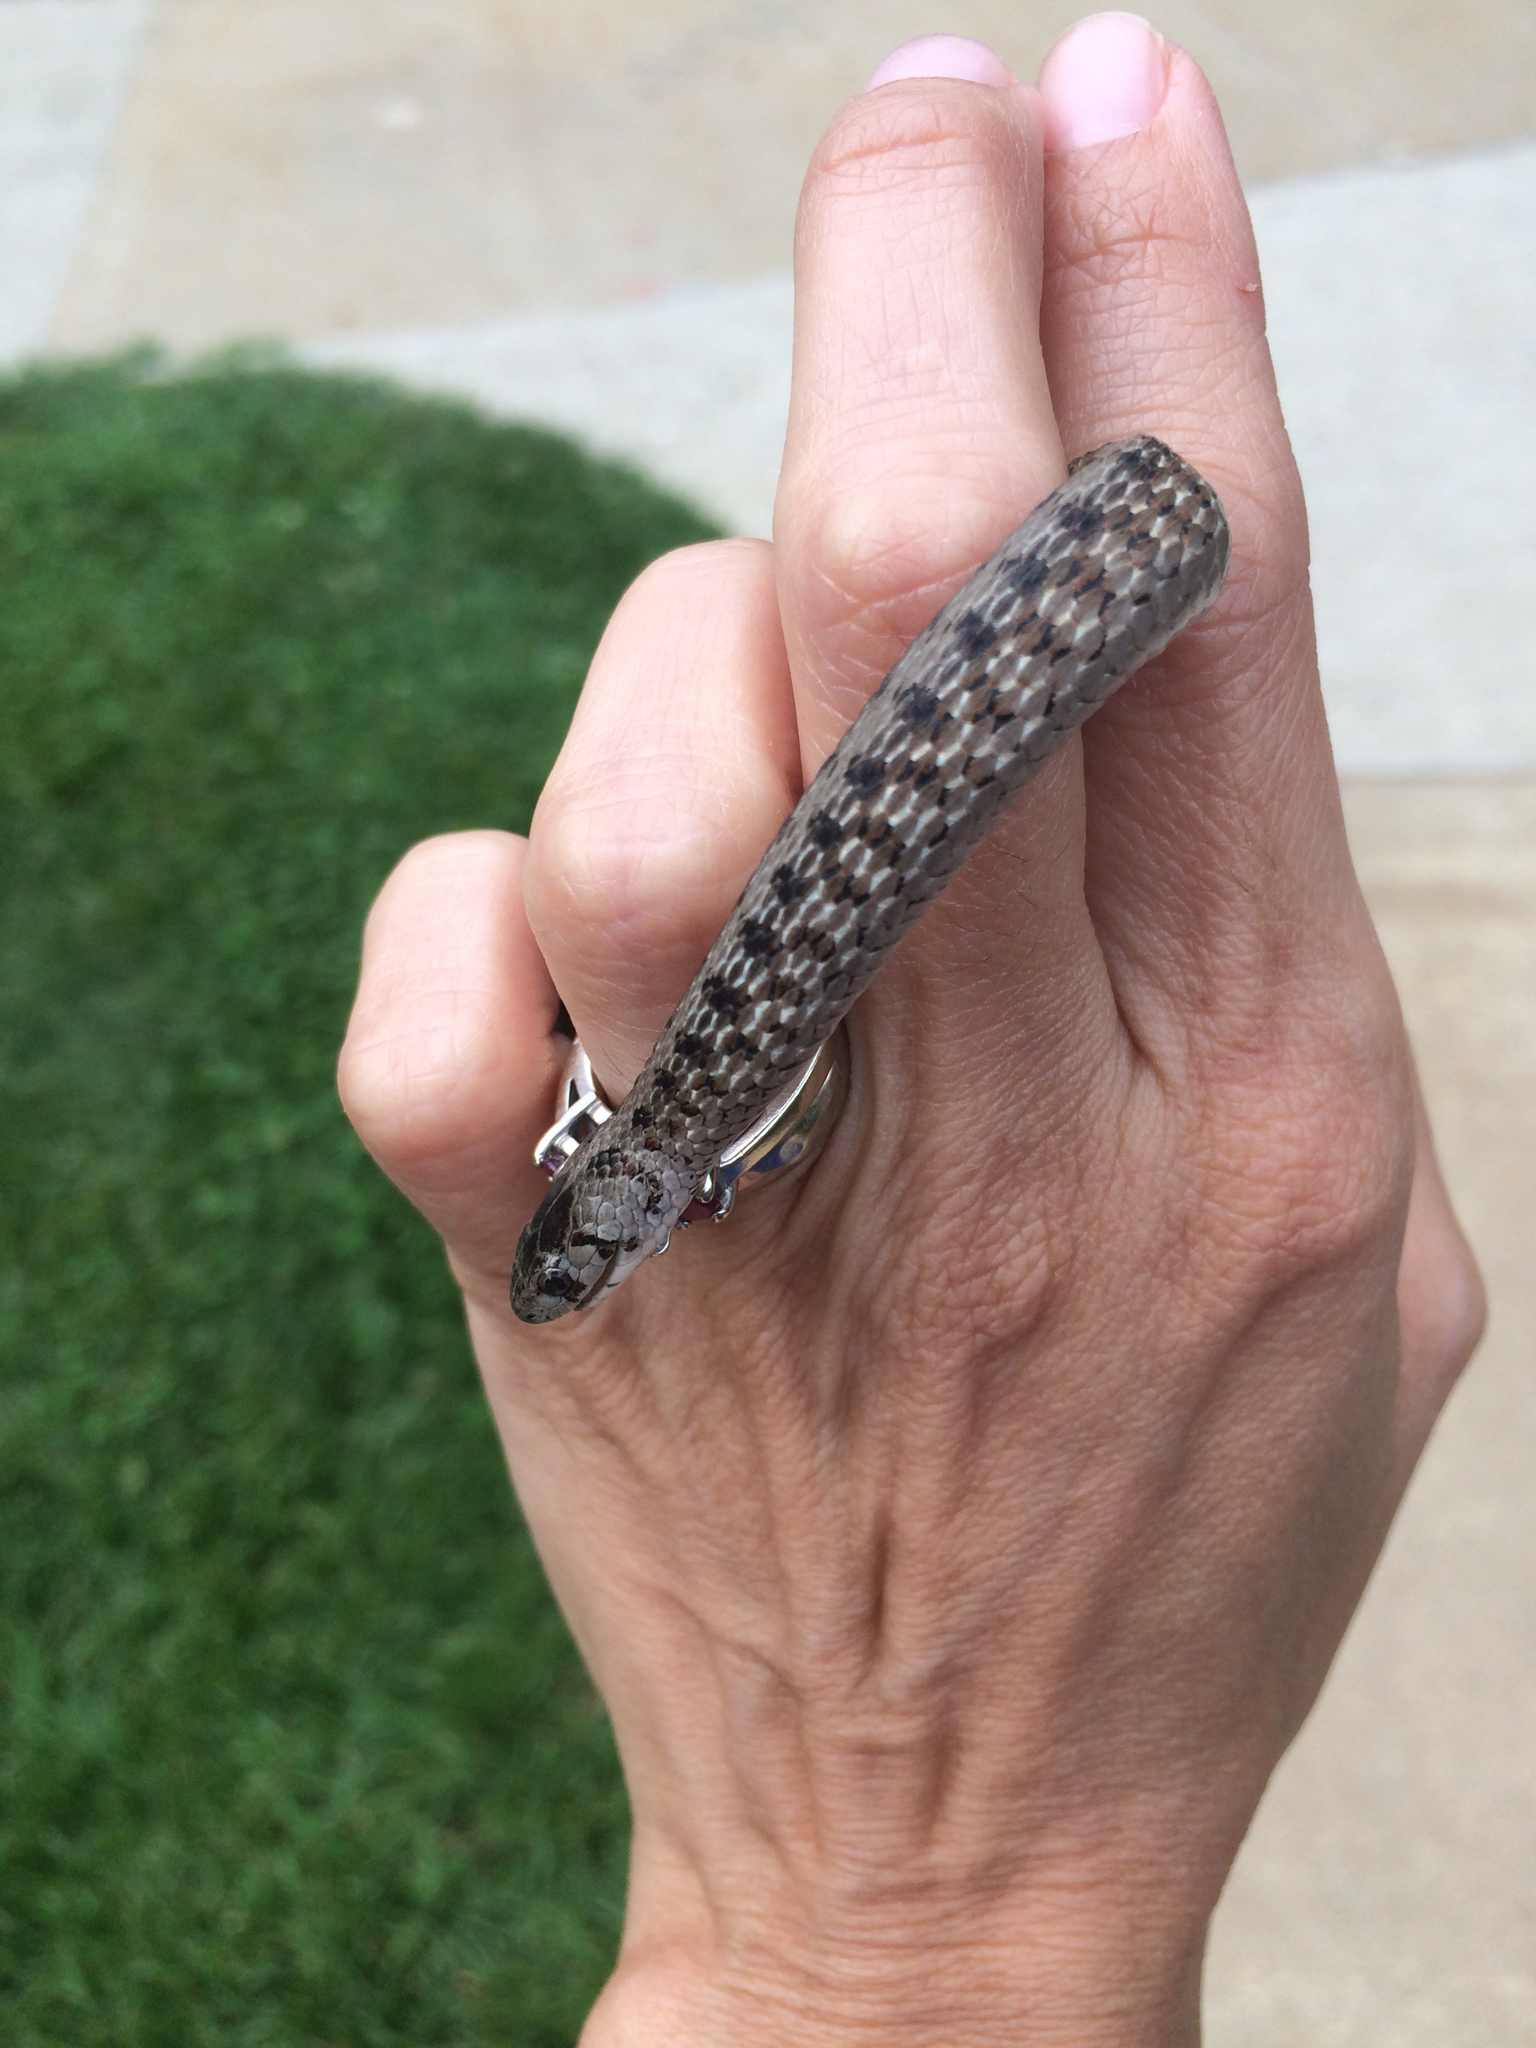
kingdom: Animalia
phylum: Chordata
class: Squamata
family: Colubridae
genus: Storeria
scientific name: Storeria dekayi
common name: (dekay’s) brown snake
